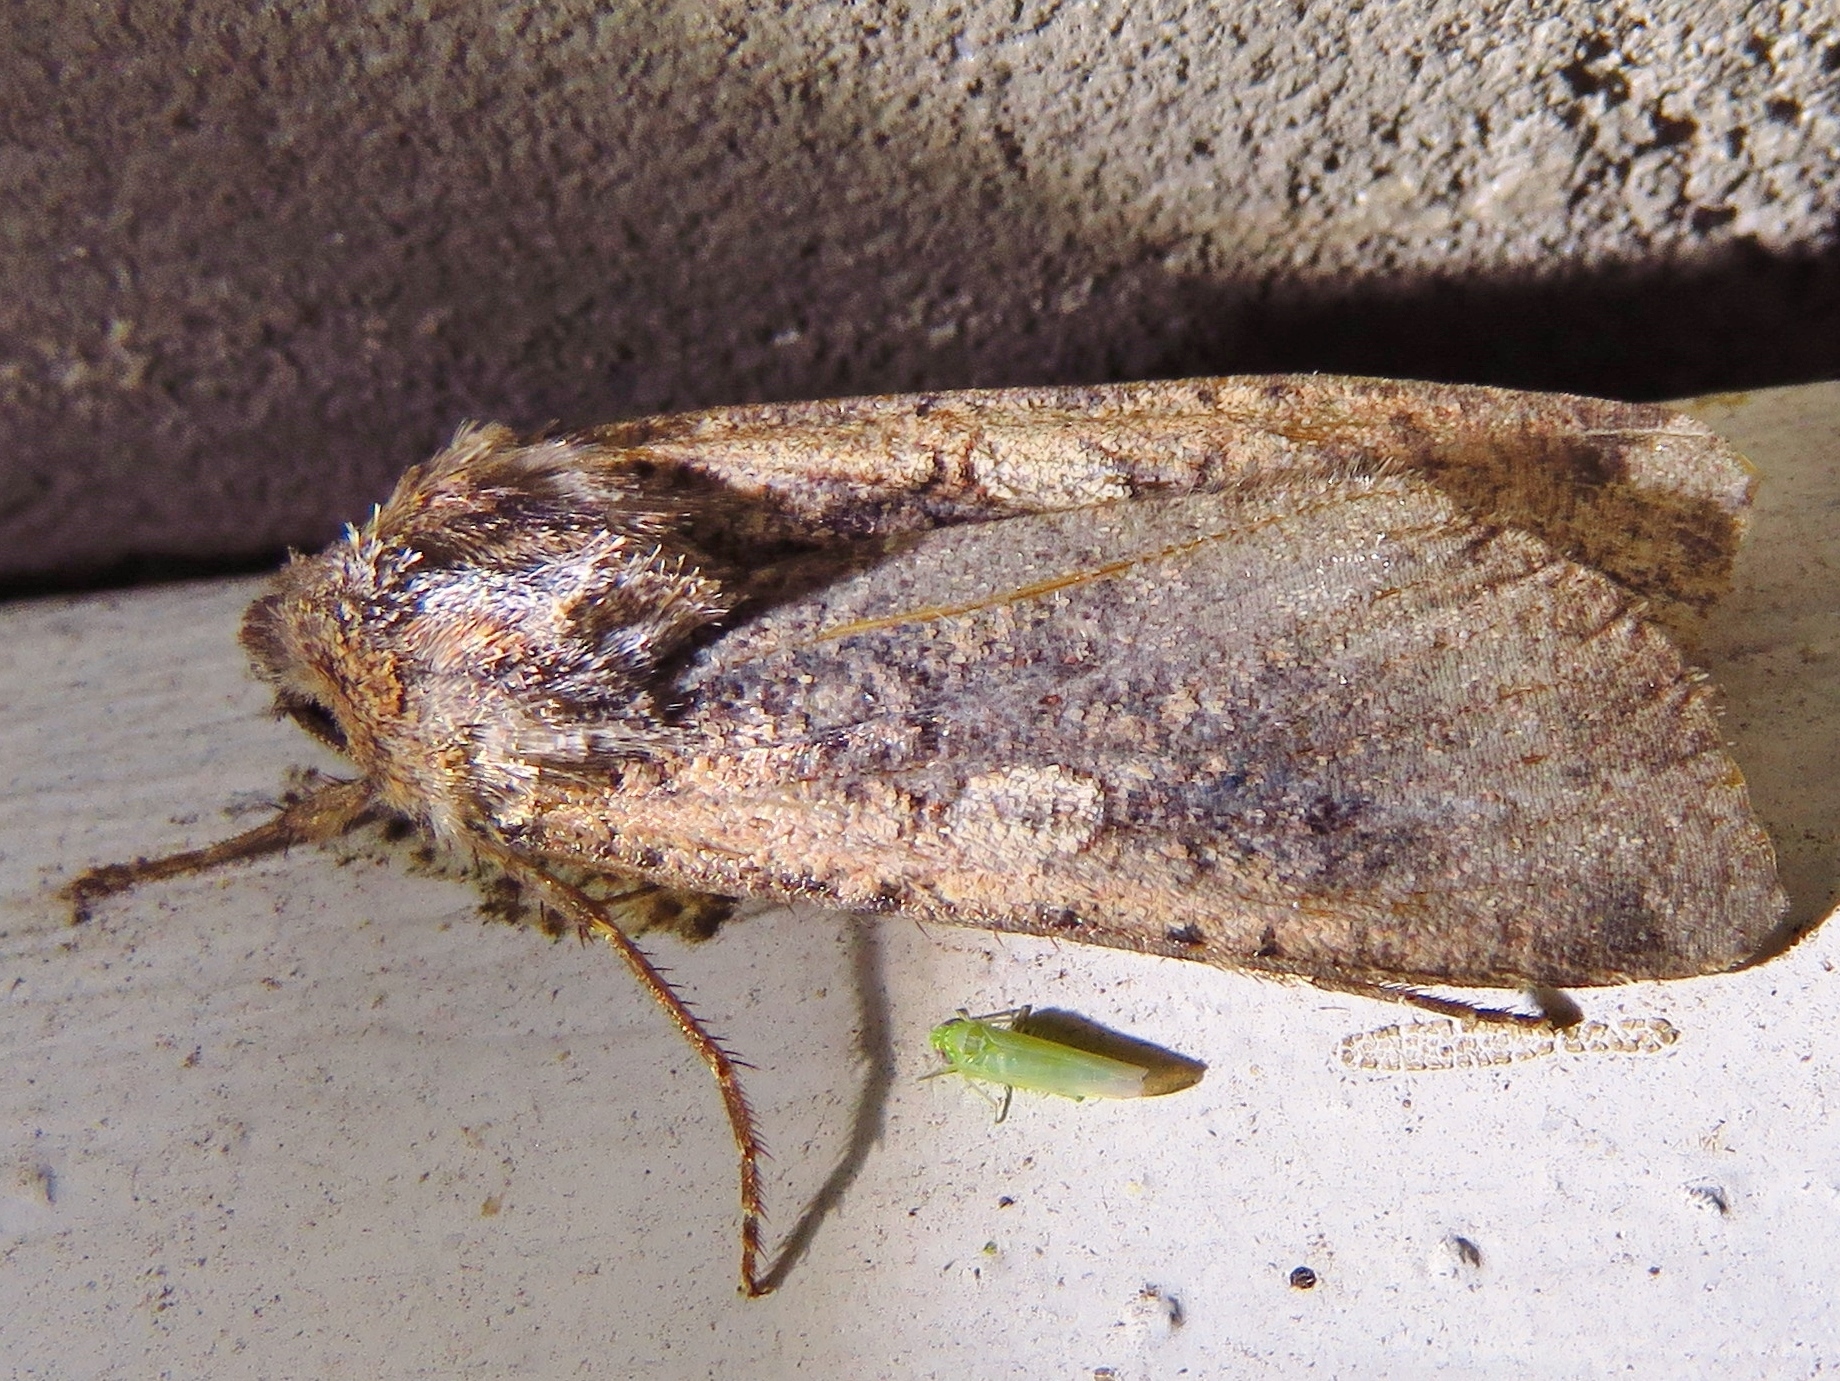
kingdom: Animalia
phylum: Arthropoda
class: Insecta
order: Lepidoptera
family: Noctuidae
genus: Peridroma
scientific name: Peridroma saucia
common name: Pearly underwing
